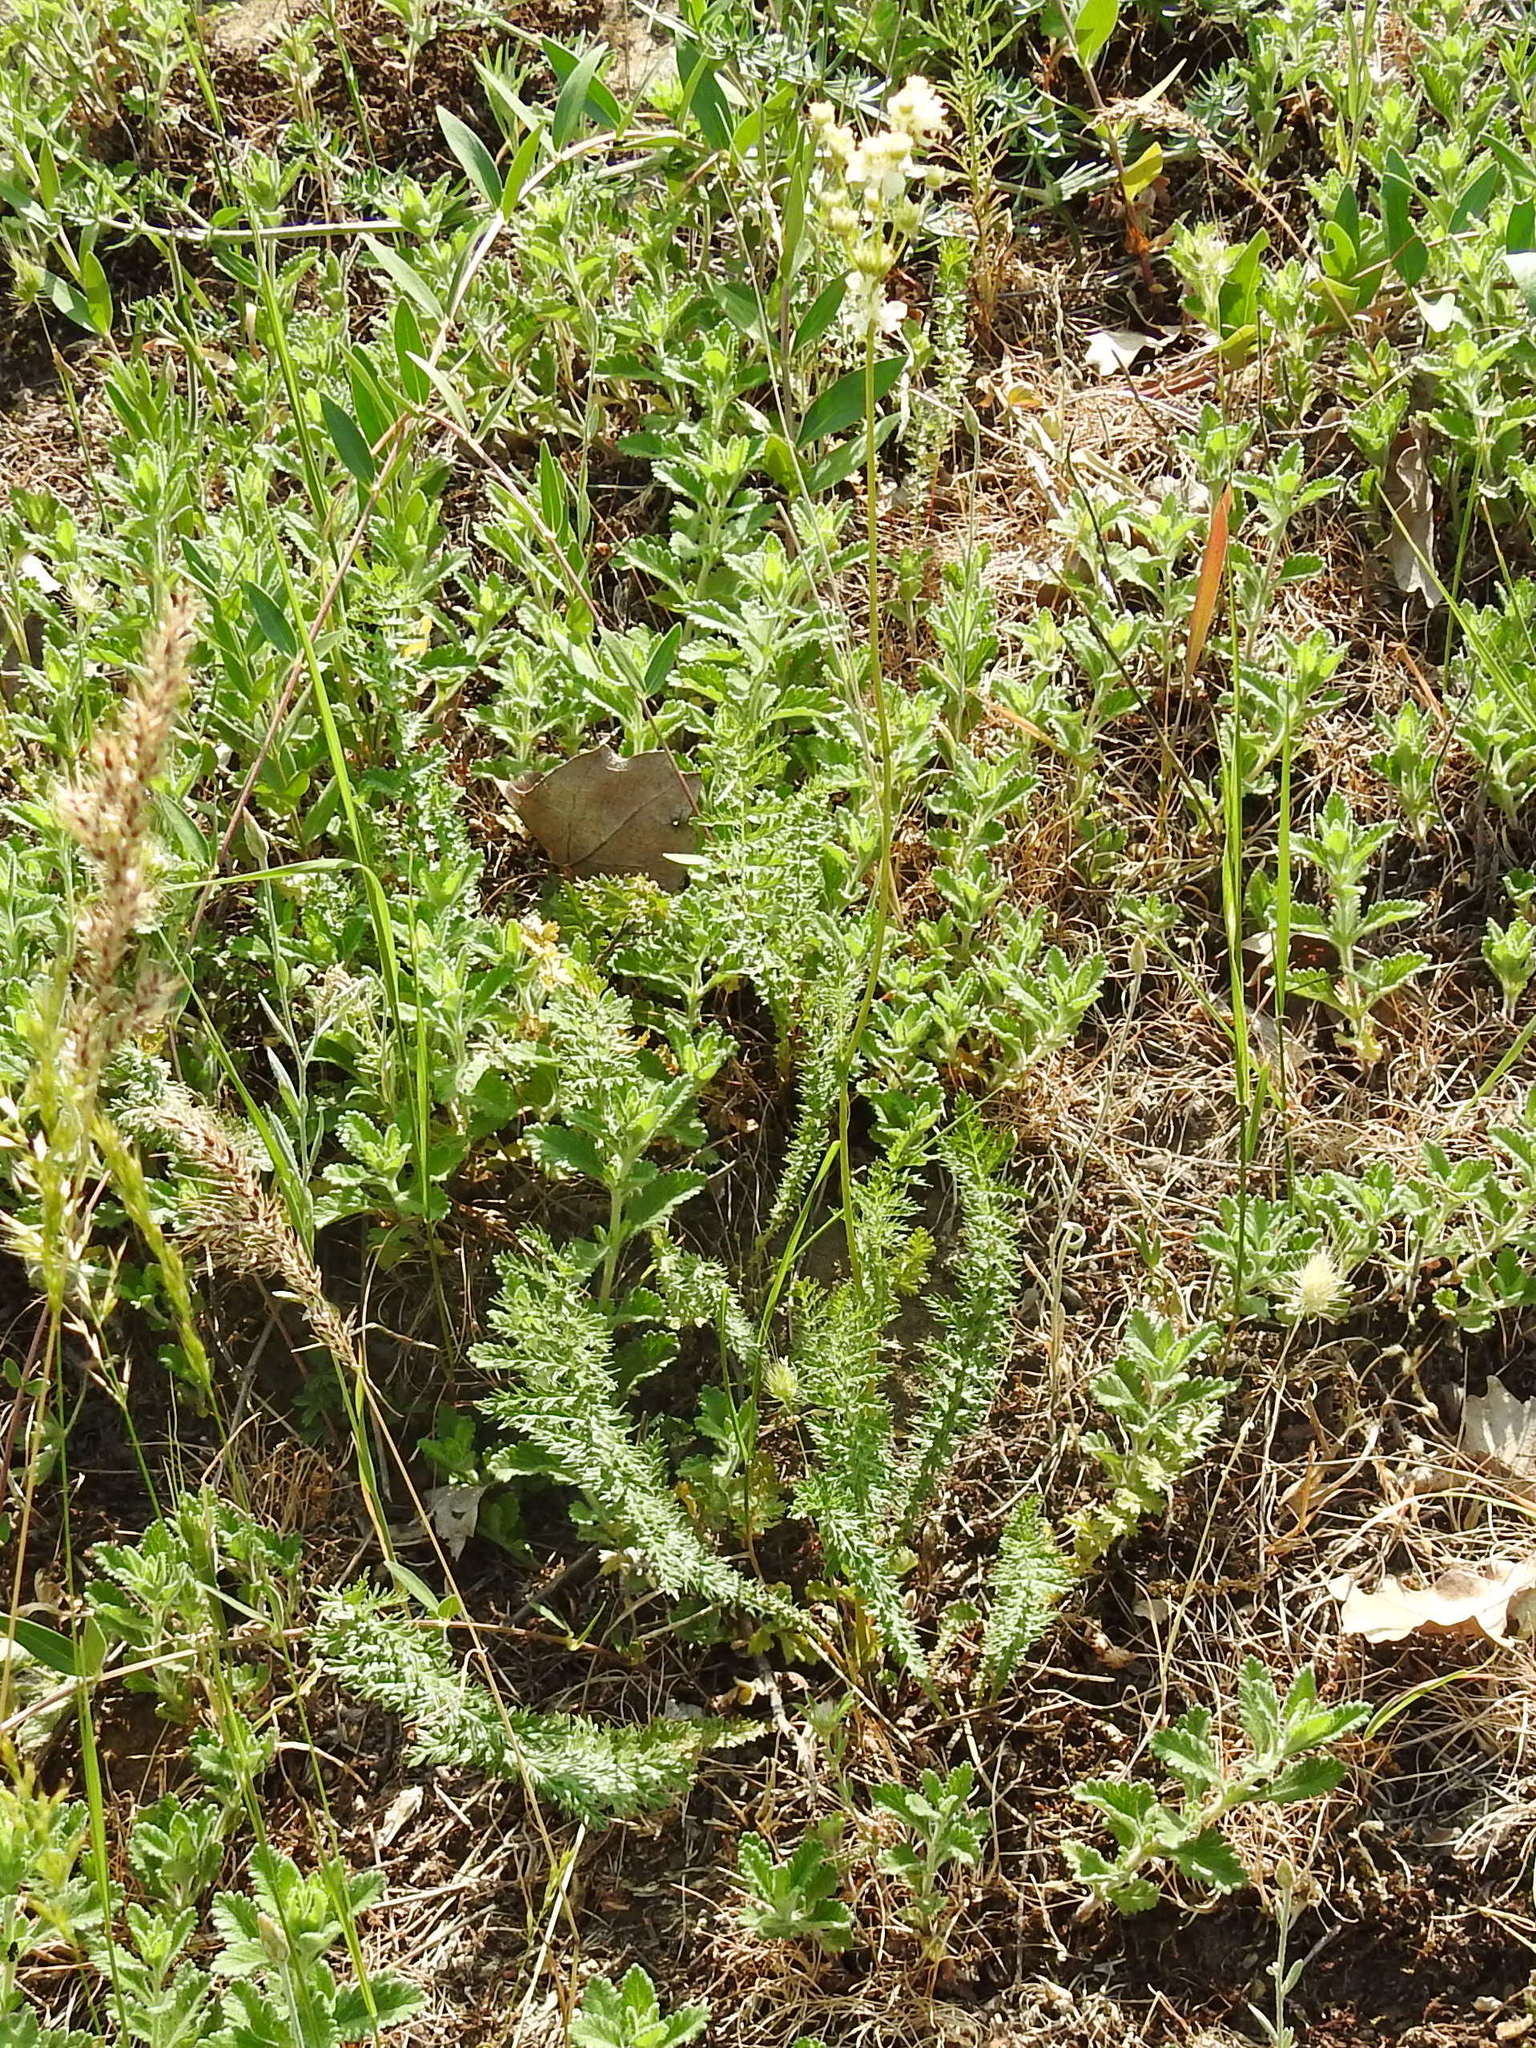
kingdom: Plantae
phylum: Tracheophyta
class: Magnoliopsida
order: Rosales
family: Rosaceae
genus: Filipendula
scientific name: Filipendula vulgaris
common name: Dropwort
